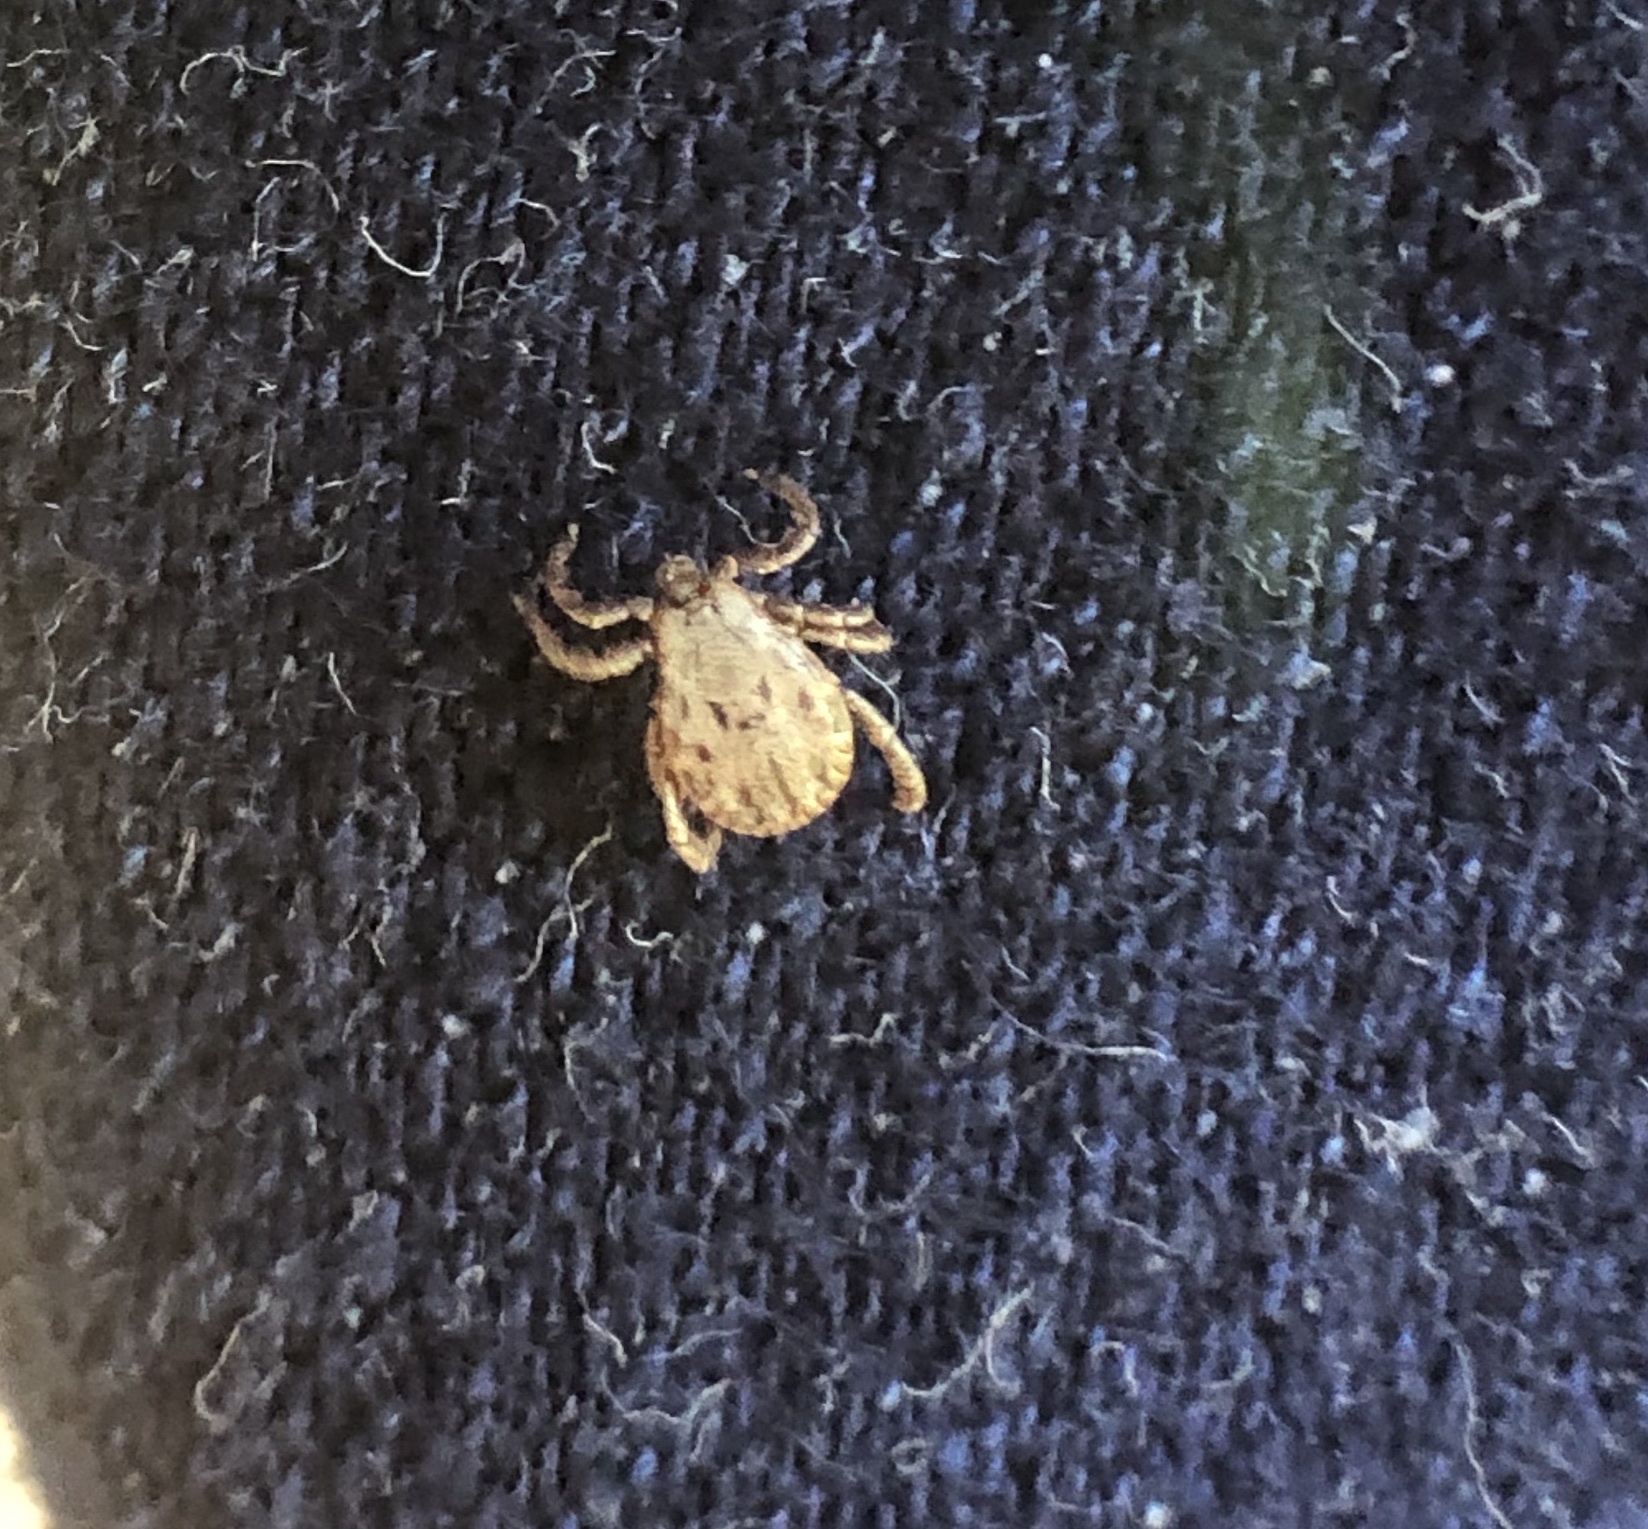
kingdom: Animalia
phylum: Arthropoda
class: Arachnida
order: Ixodida
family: Ixodidae
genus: Dermacentor
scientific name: Dermacentor occidentalis
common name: Net tick
